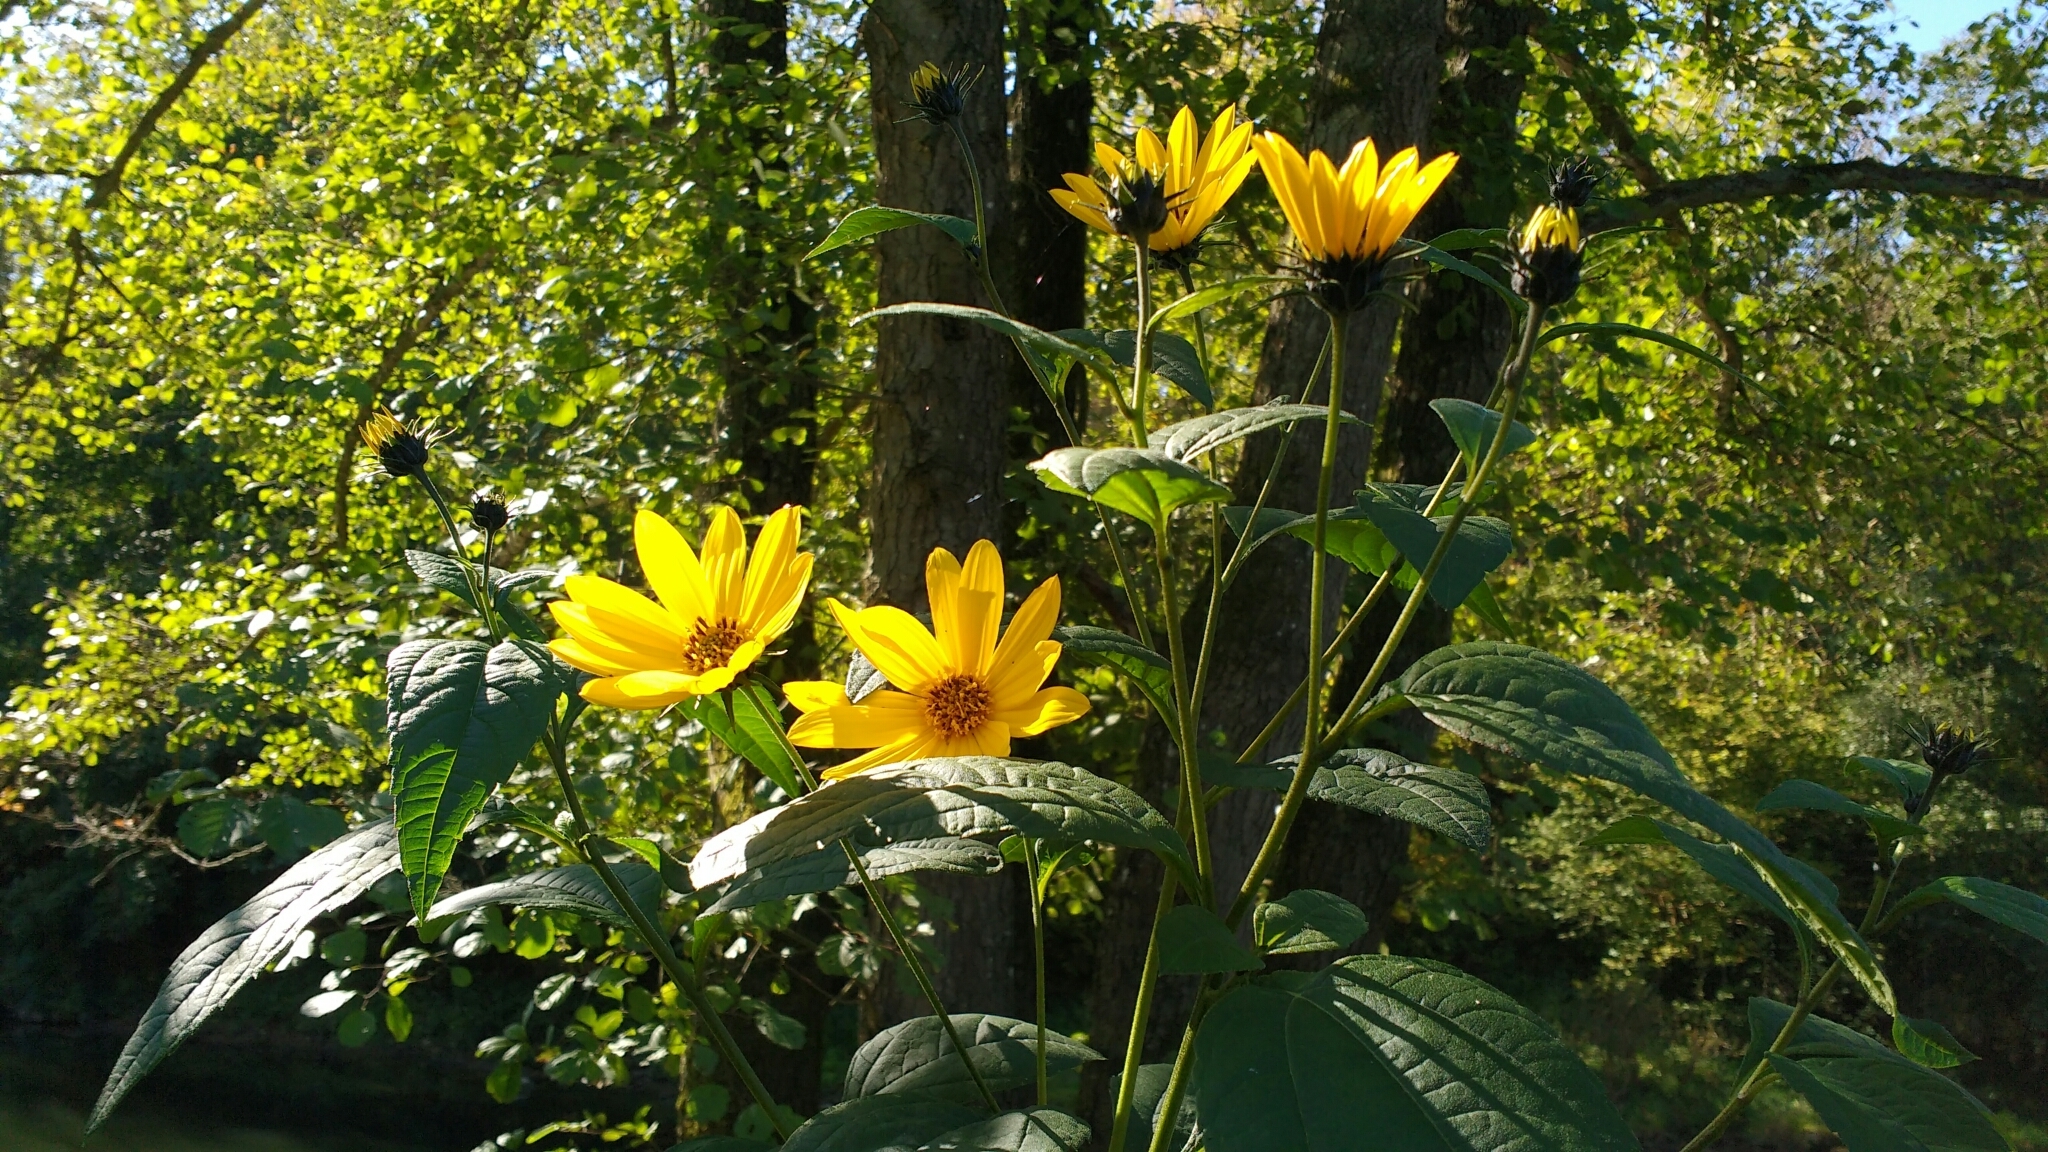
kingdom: Plantae
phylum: Tracheophyta
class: Magnoliopsida
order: Asterales
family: Asteraceae
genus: Helianthus
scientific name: Helianthus tuberosus
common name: Jerusalem artichoke
